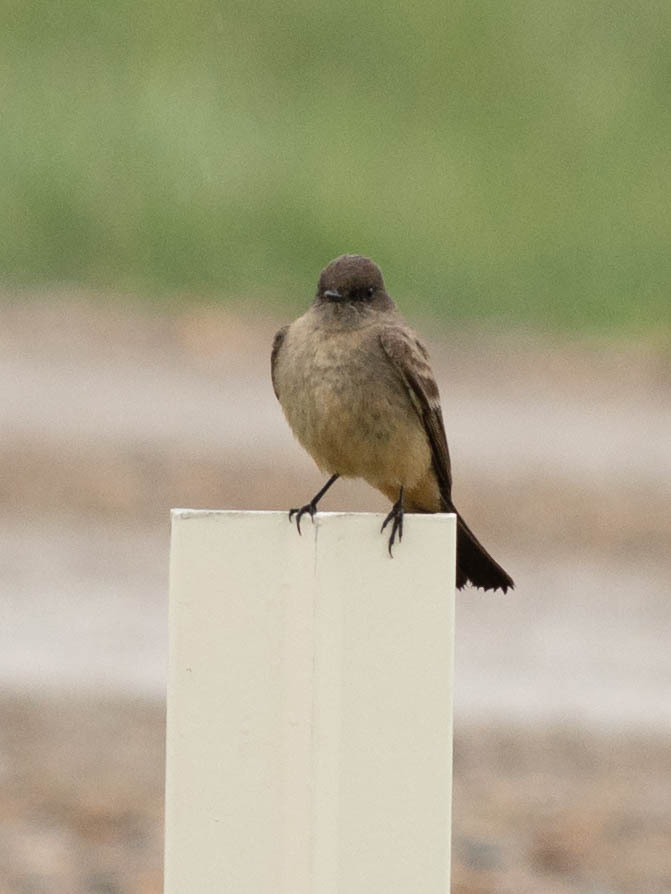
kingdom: Animalia
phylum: Chordata
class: Aves
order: Passeriformes
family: Tyrannidae
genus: Sayornis
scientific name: Sayornis saya
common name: Say's phoebe
